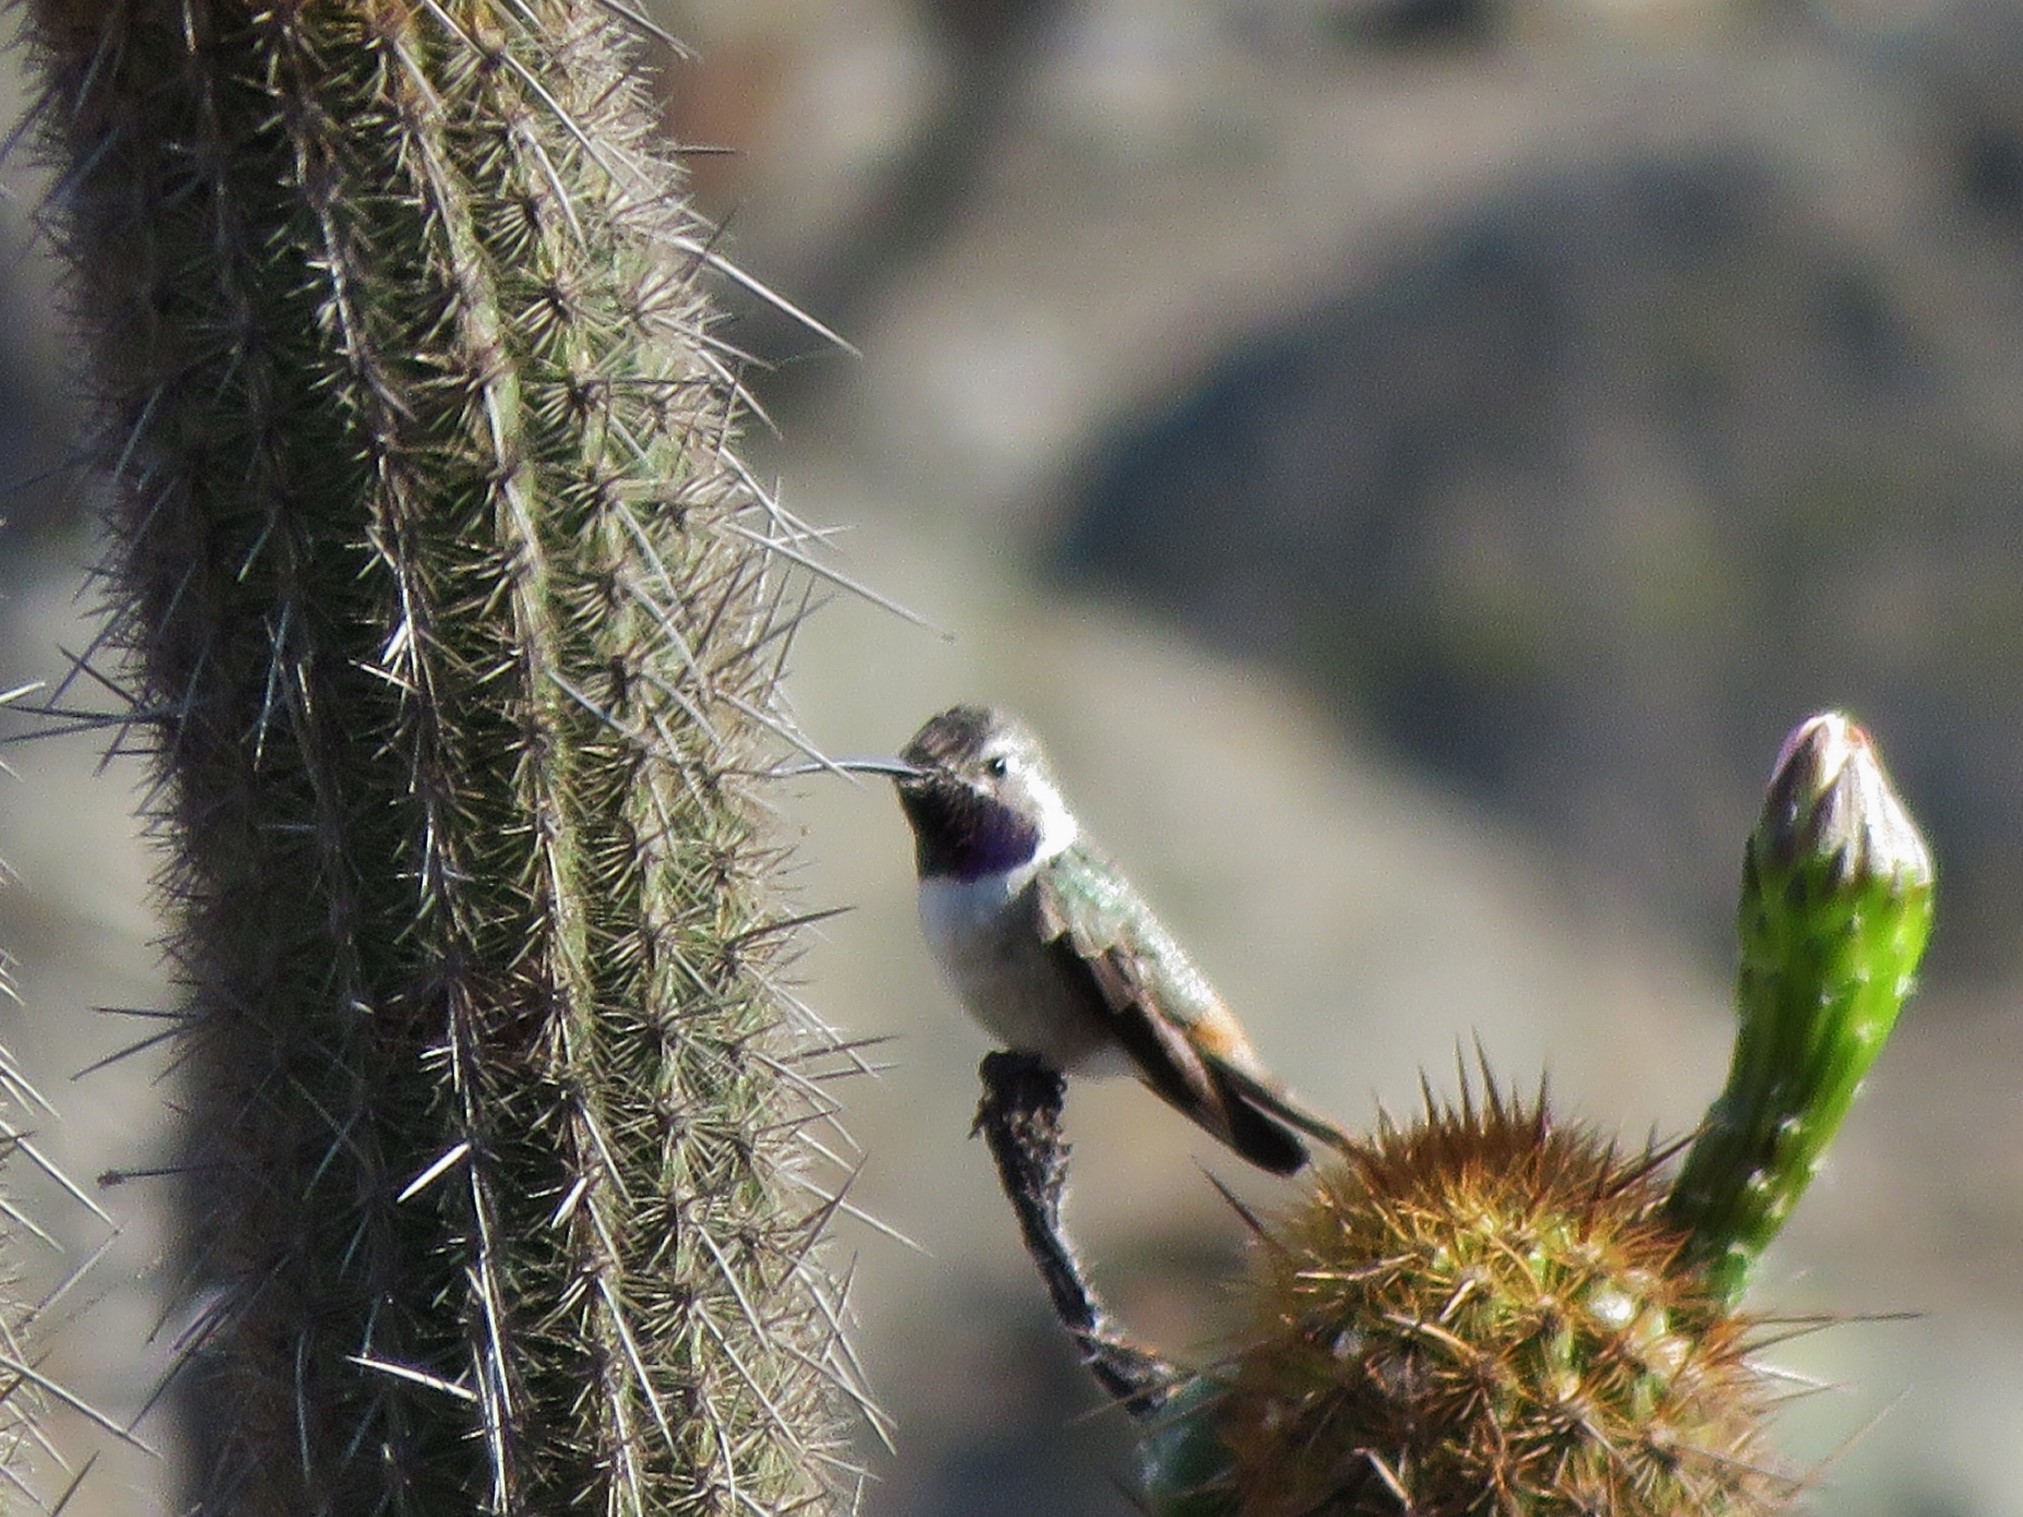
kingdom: Animalia
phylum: Chordata
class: Aves
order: Apodiformes
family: Trochilidae
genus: Rhodopis
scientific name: Rhodopis vesper
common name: Oasis hummingbird
